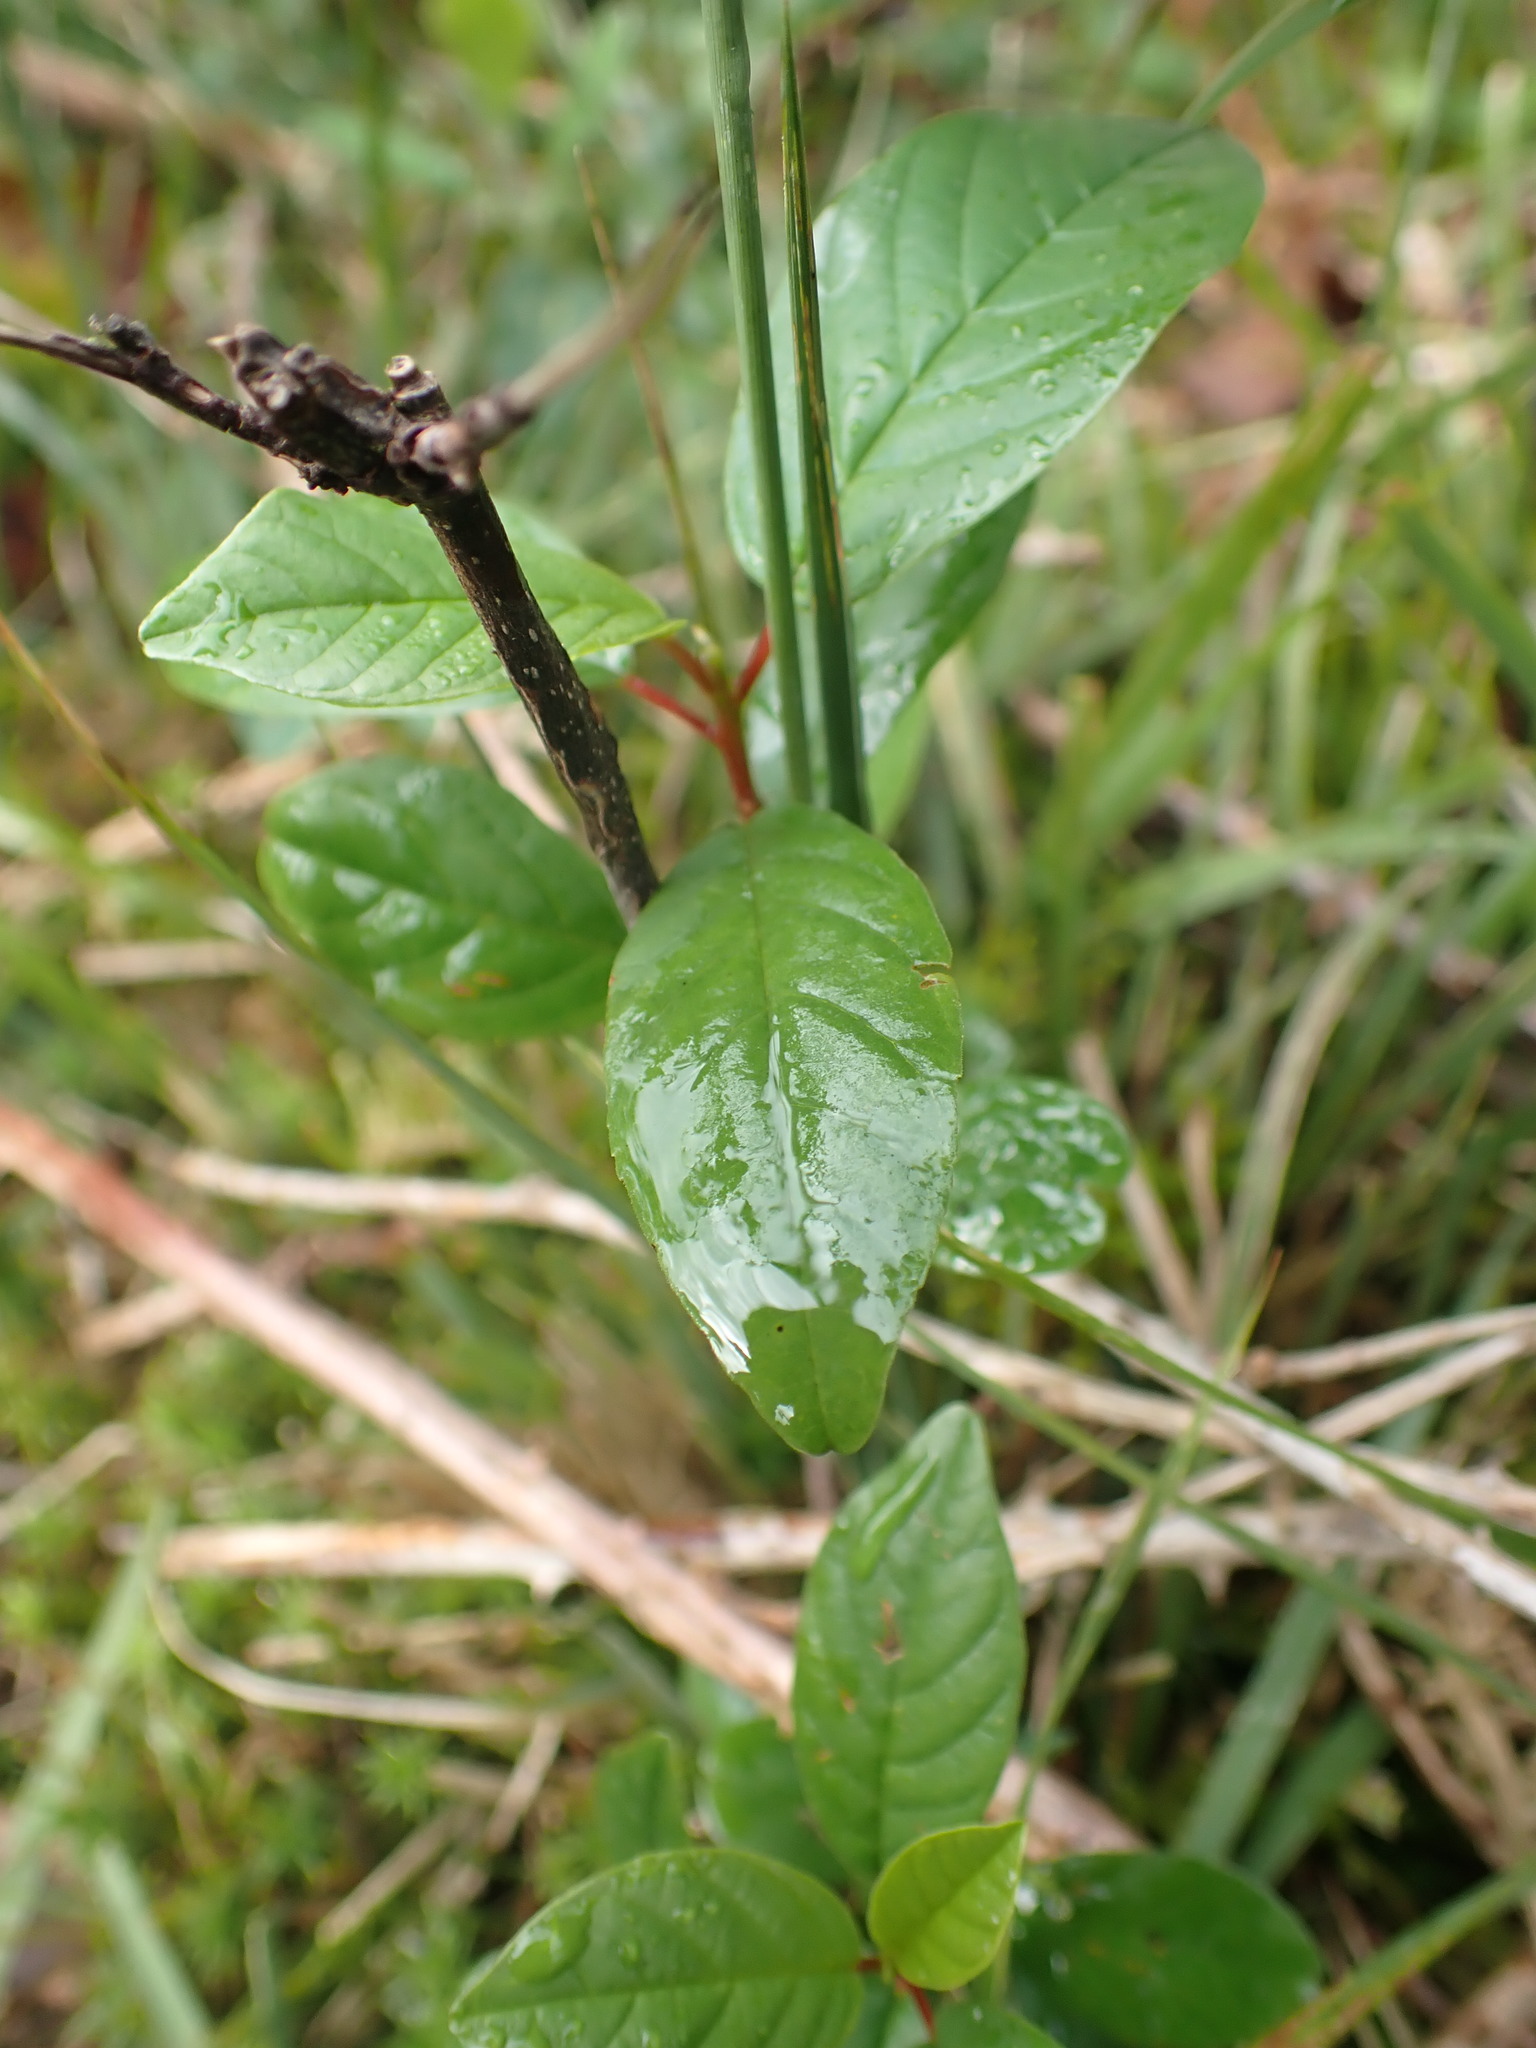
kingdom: Plantae
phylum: Tracheophyta
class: Magnoliopsida
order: Rosales
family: Rhamnaceae
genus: Frangula
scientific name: Frangula alnus
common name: Alder buckthorn
